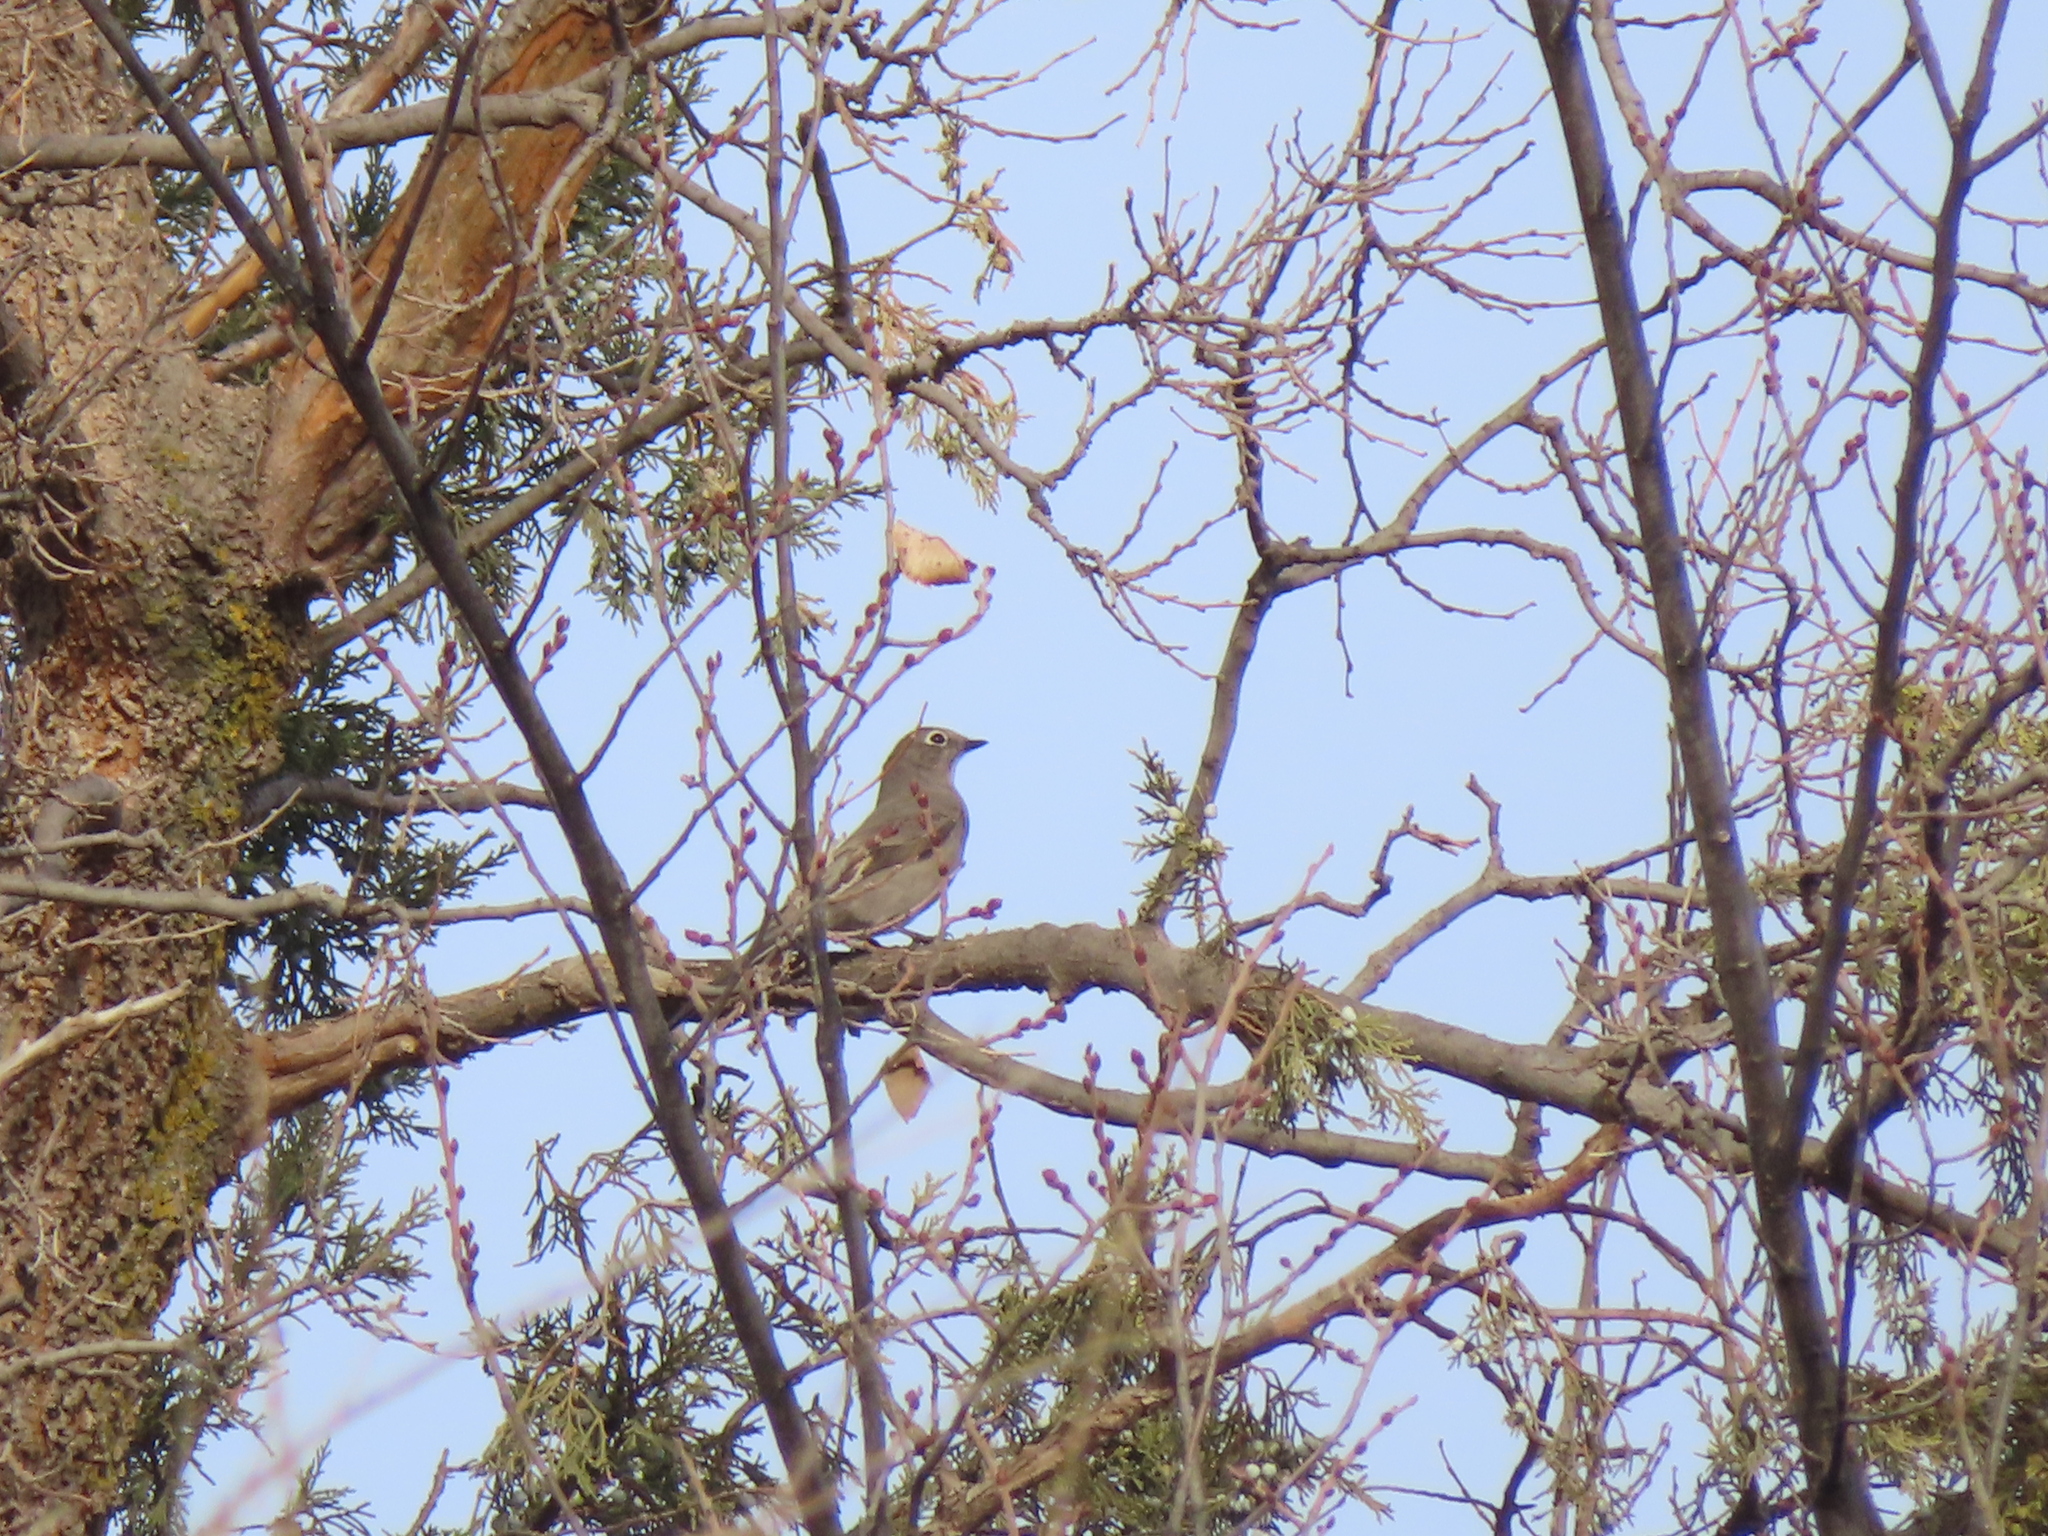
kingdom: Animalia
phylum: Chordata
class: Aves
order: Passeriformes
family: Turdidae
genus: Myadestes
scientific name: Myadestes townsendi
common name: Townsend's solitaire
